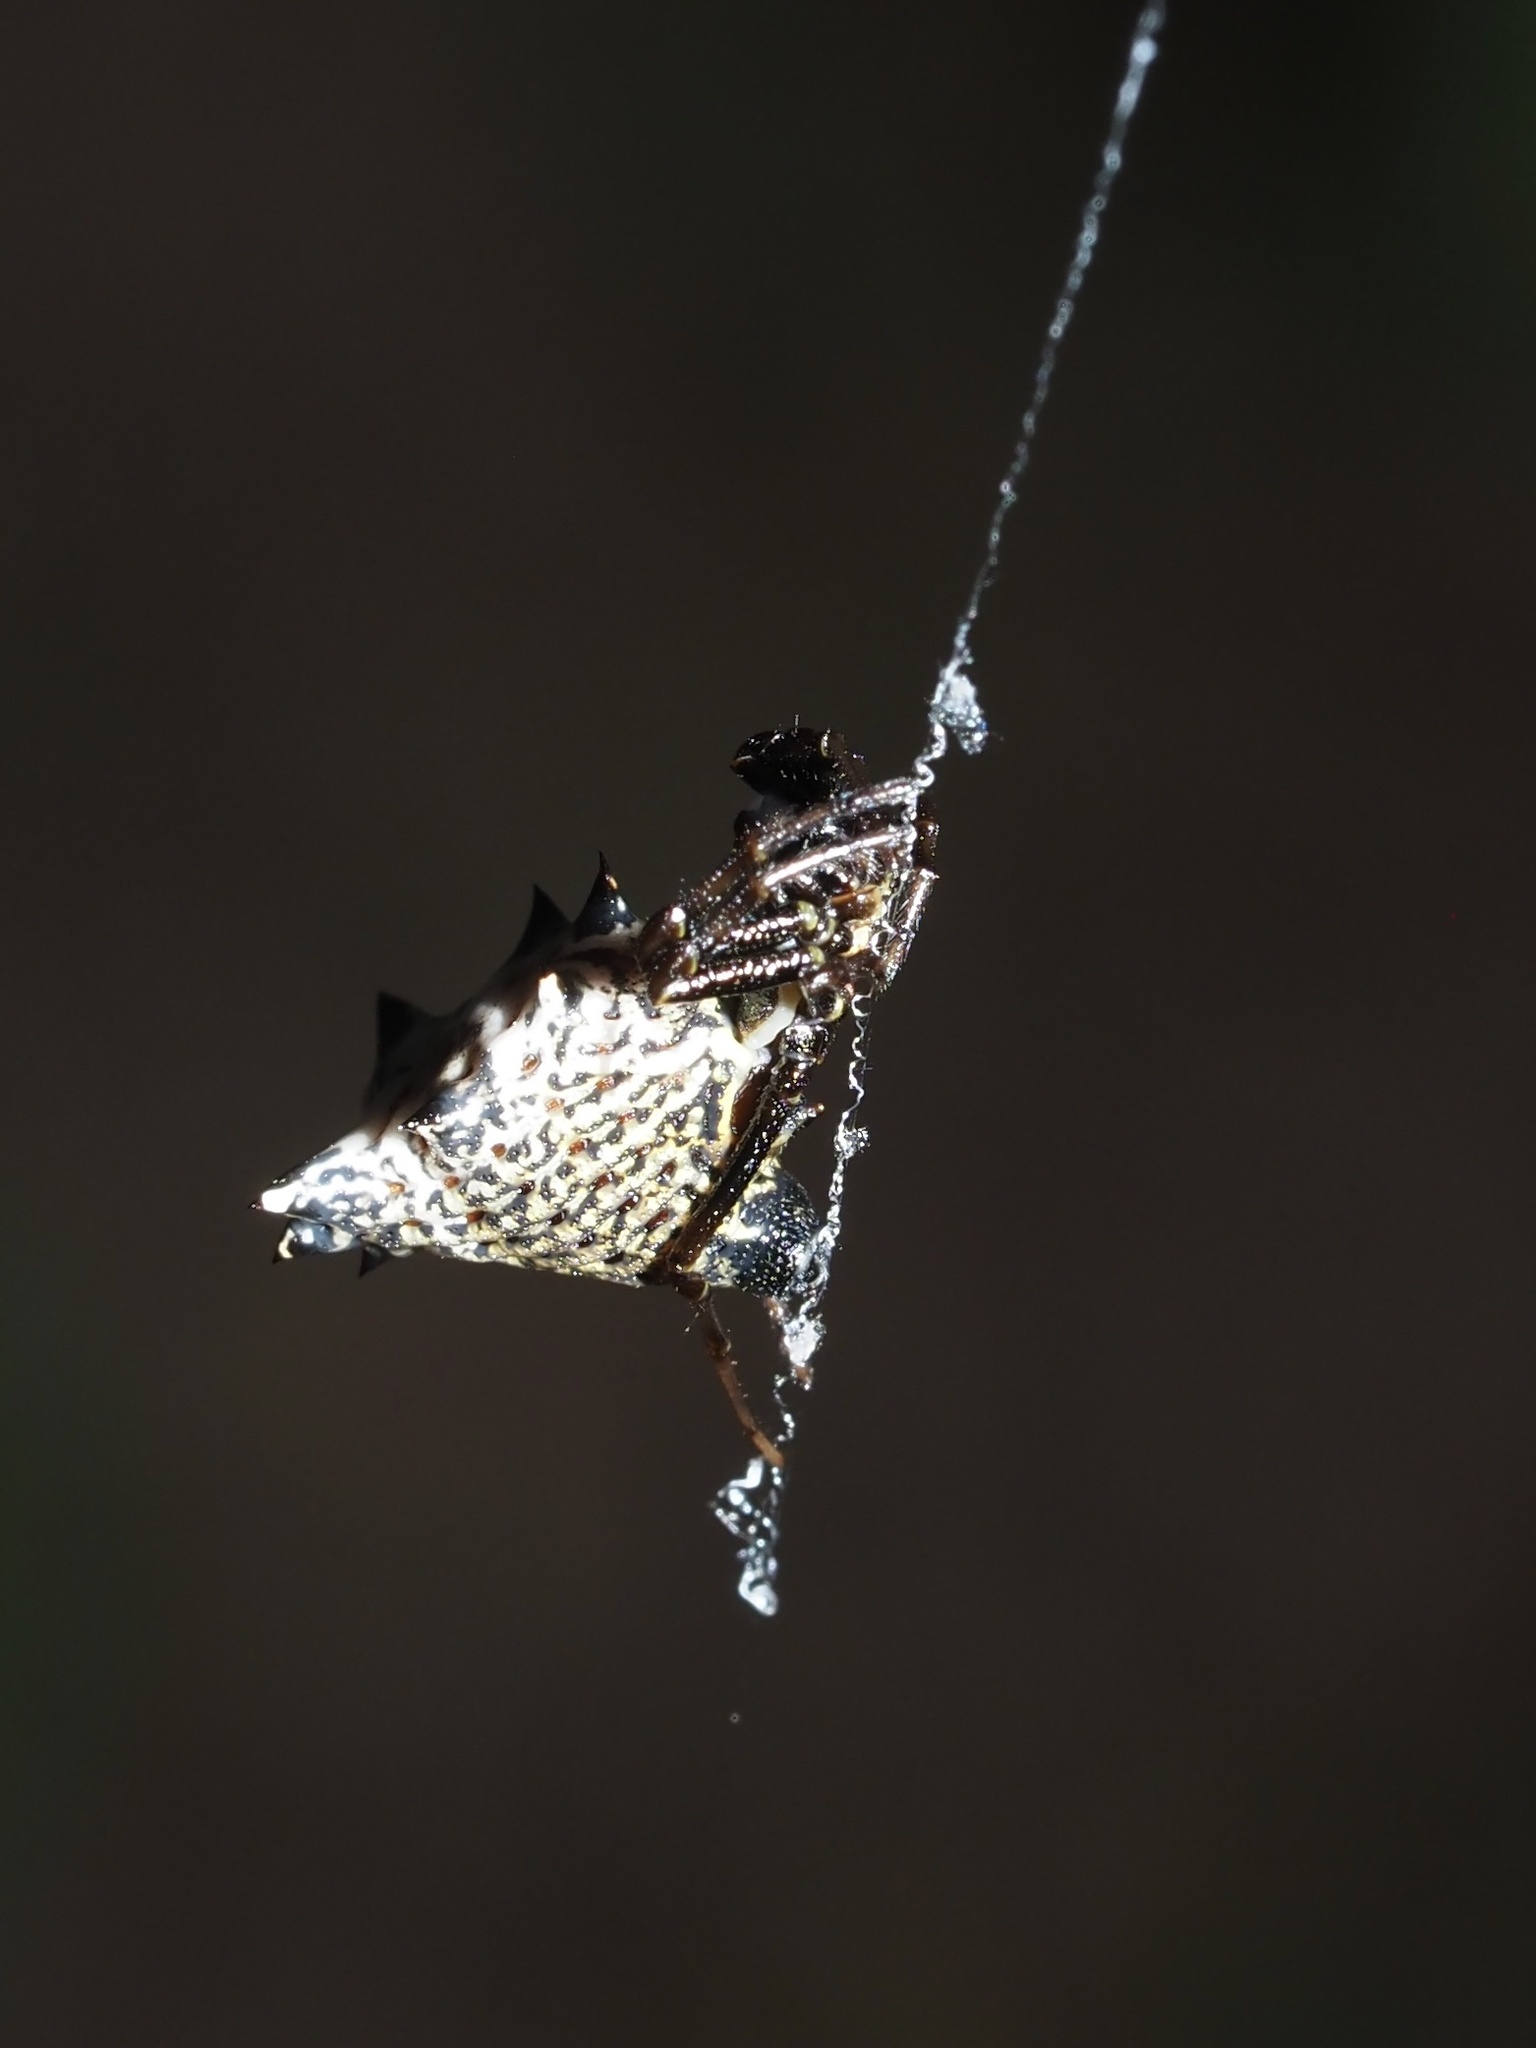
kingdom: Animalia
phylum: Arthropoda
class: Arachnida
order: Araneae
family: Araneidae
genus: Micrathena
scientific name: Micrathena gracilis
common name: Orb weavers
